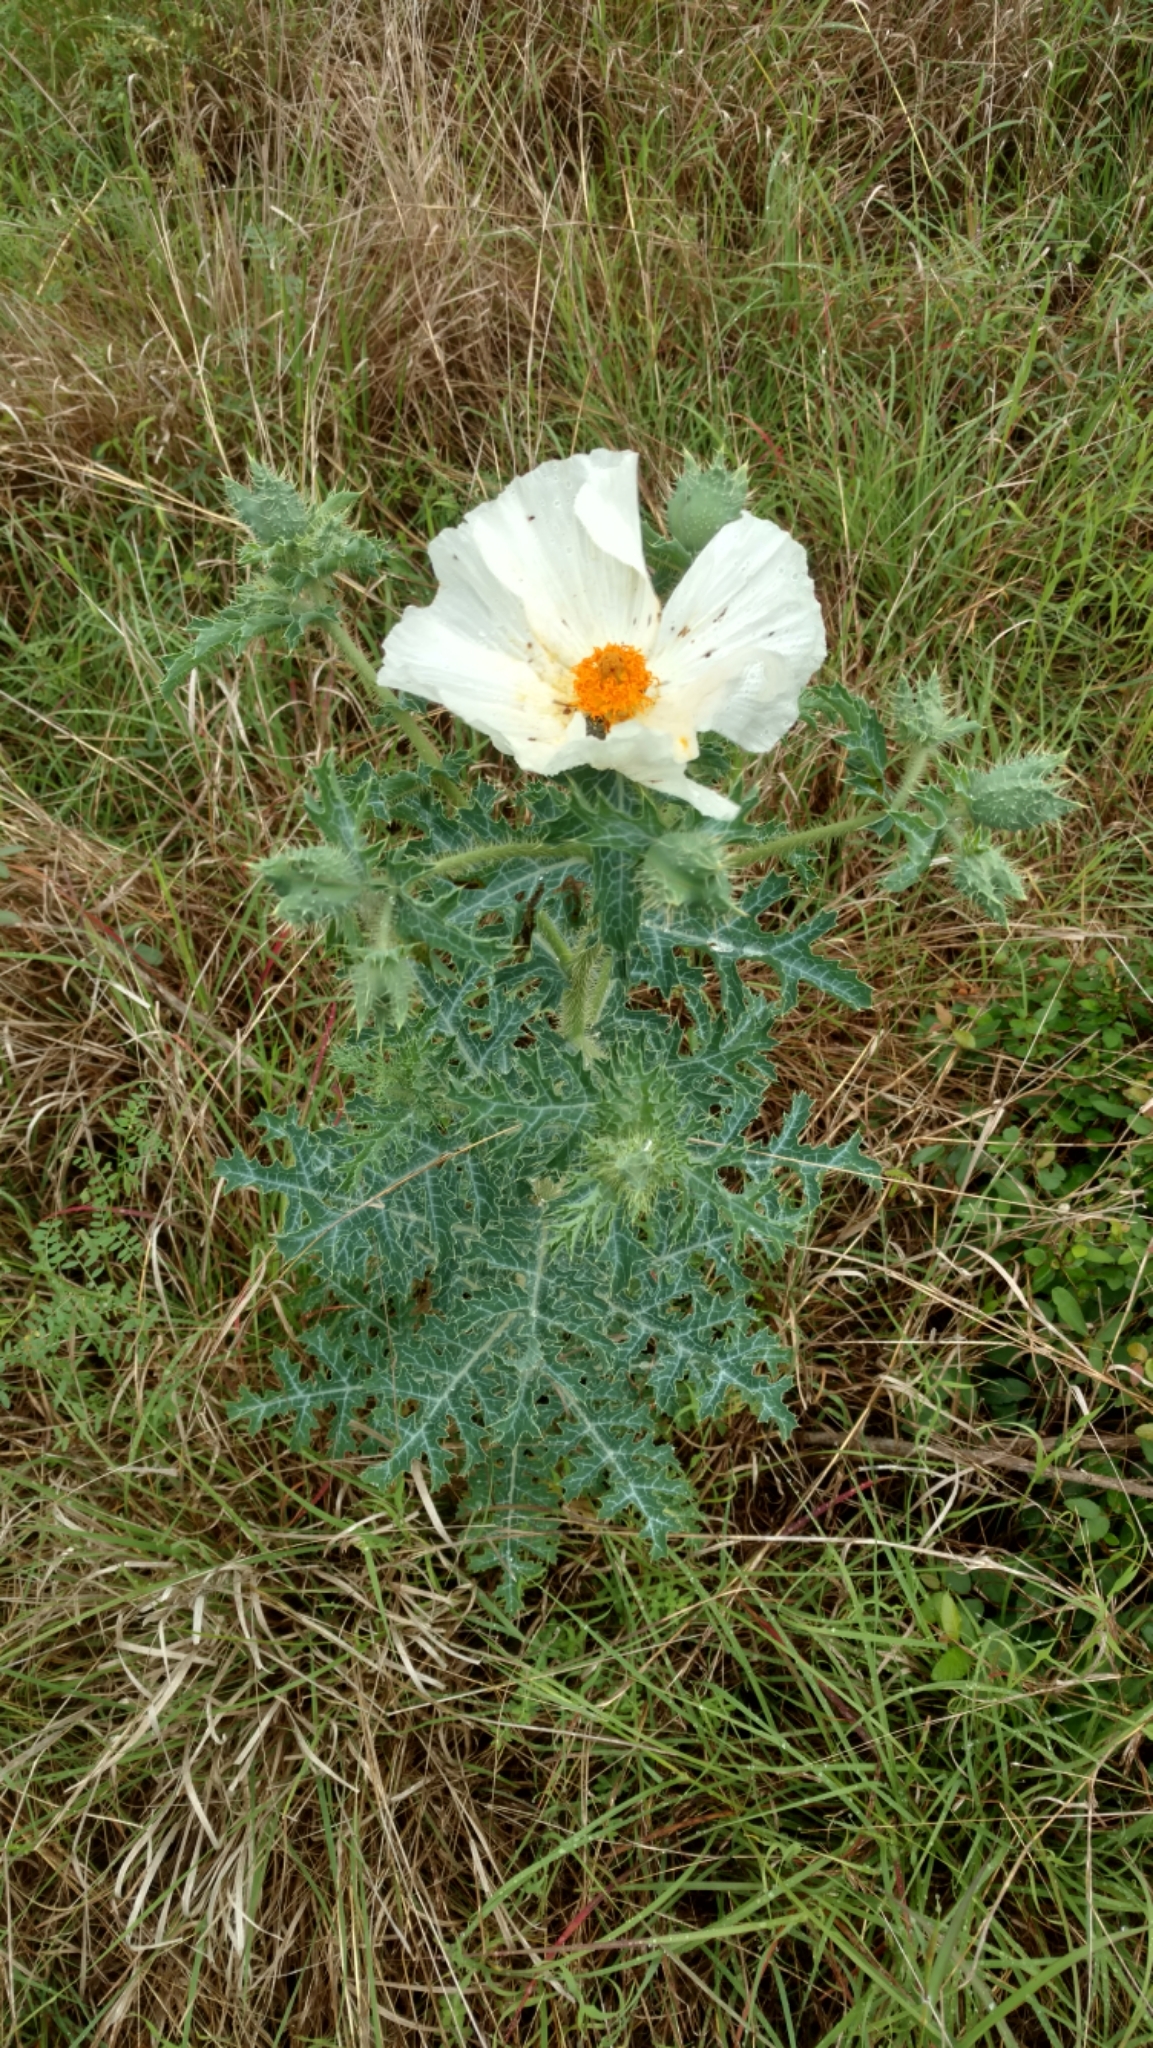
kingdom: Plantae
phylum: Tracheophyta
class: Magnoliopsida
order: Ranunculales
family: Papaveraceae
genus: Argemone
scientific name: Argemone albiflora
